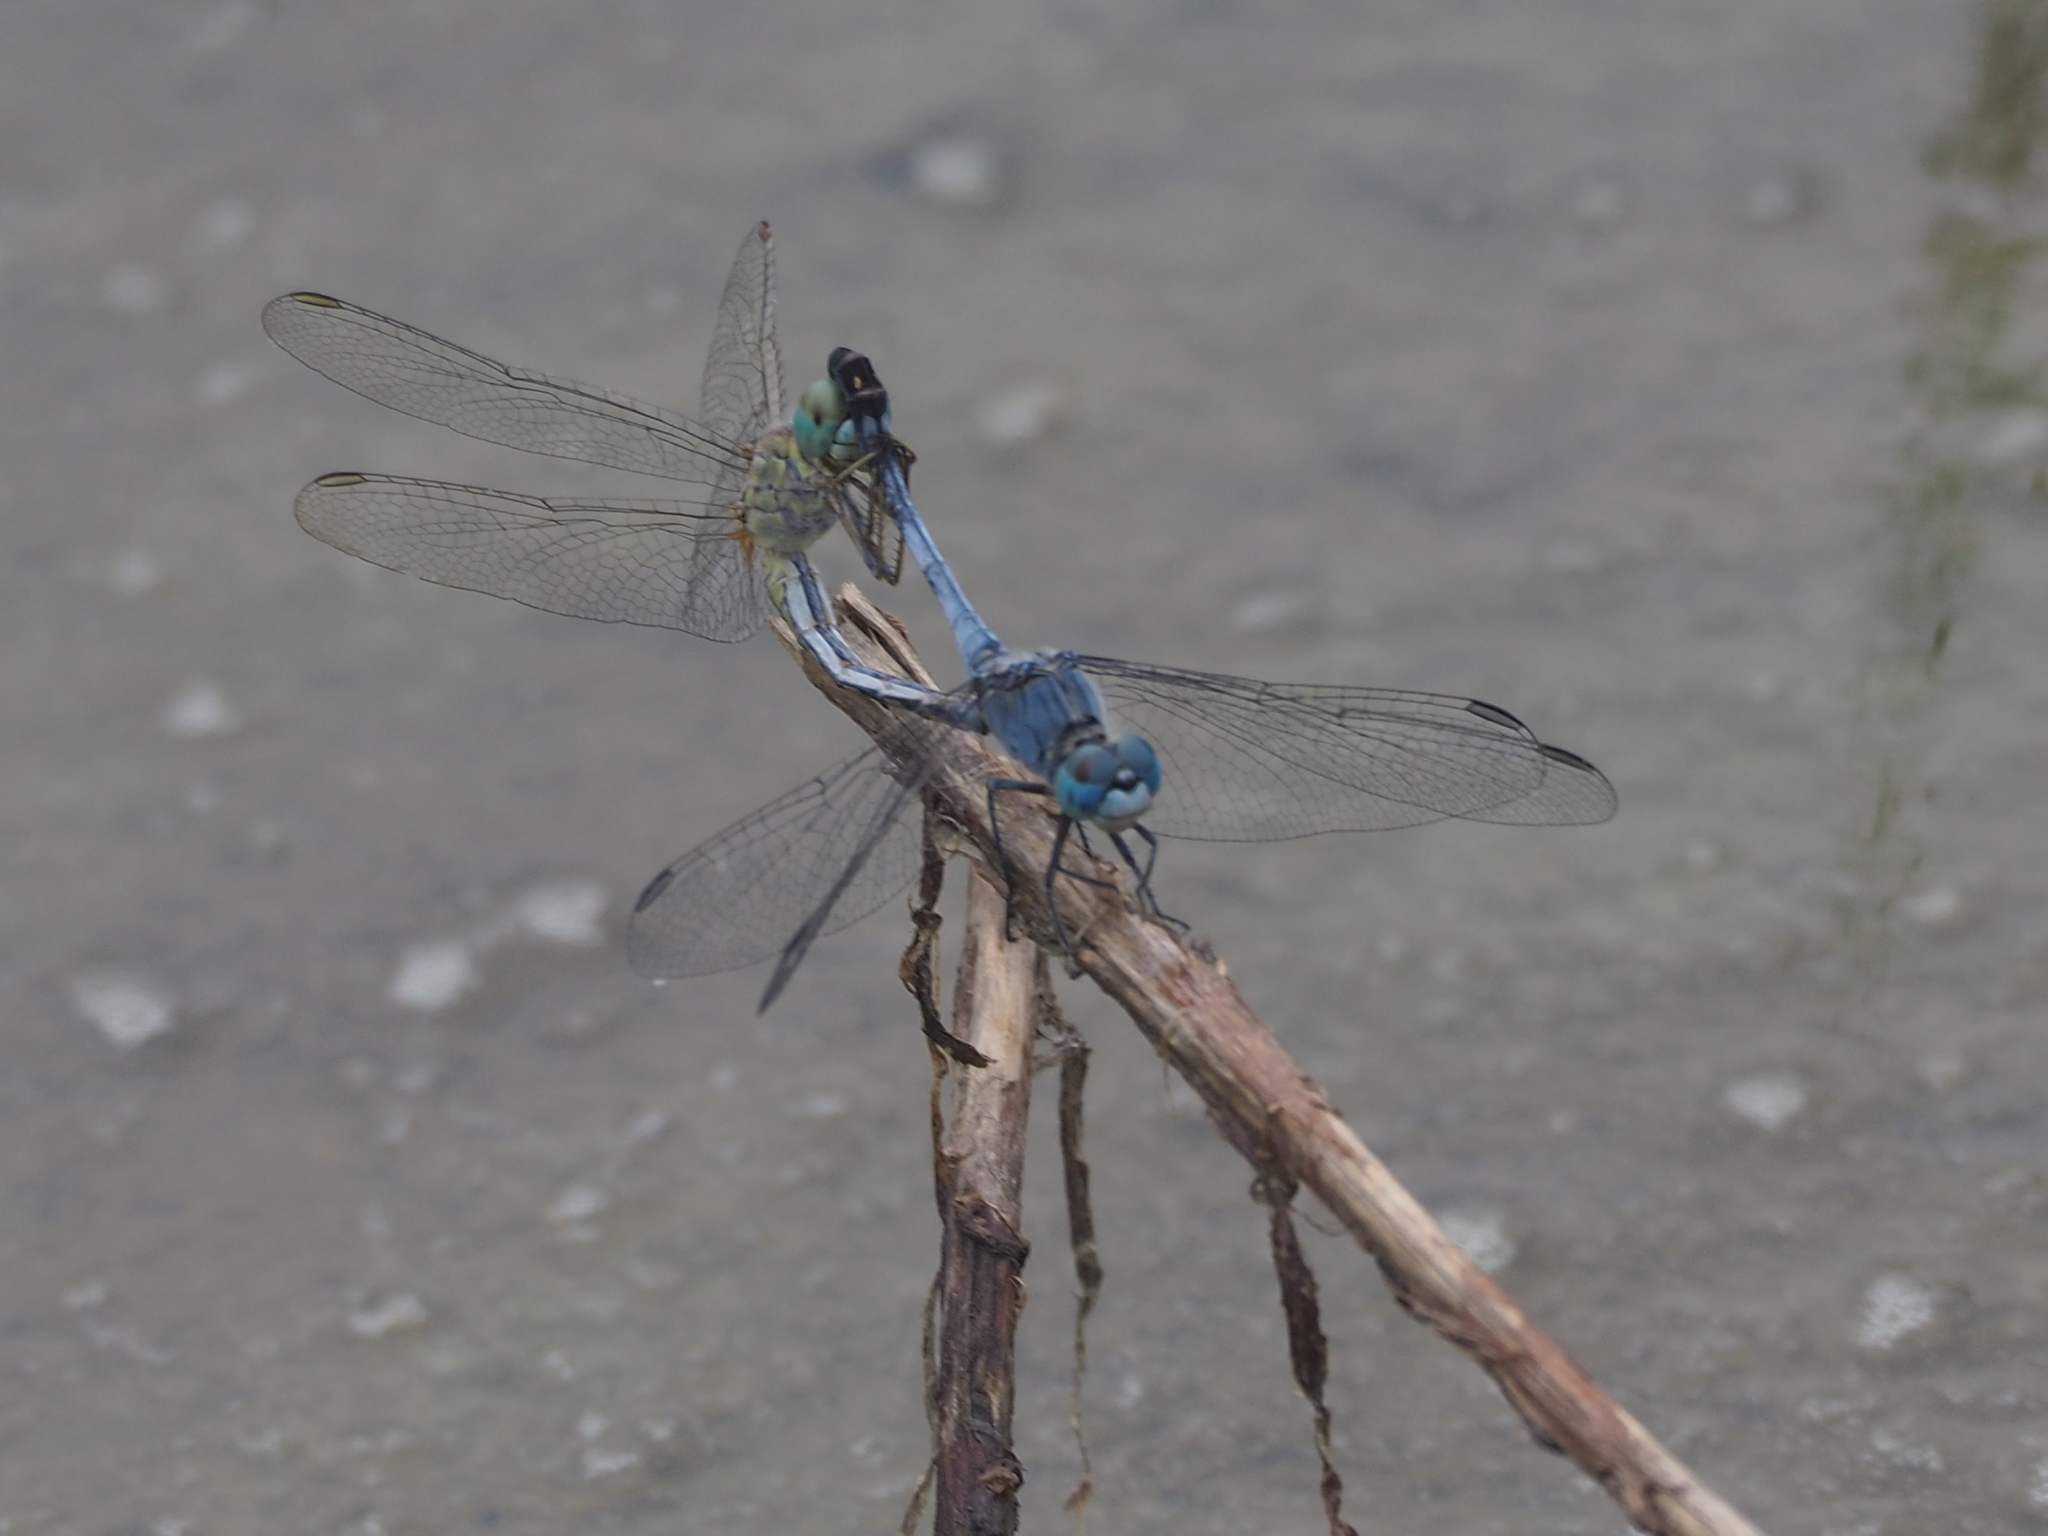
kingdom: Animalia
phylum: Arthropoda
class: Insecta
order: Odonata
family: Libellulidae
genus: Diplacodes
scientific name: Diplacodes trivialis
